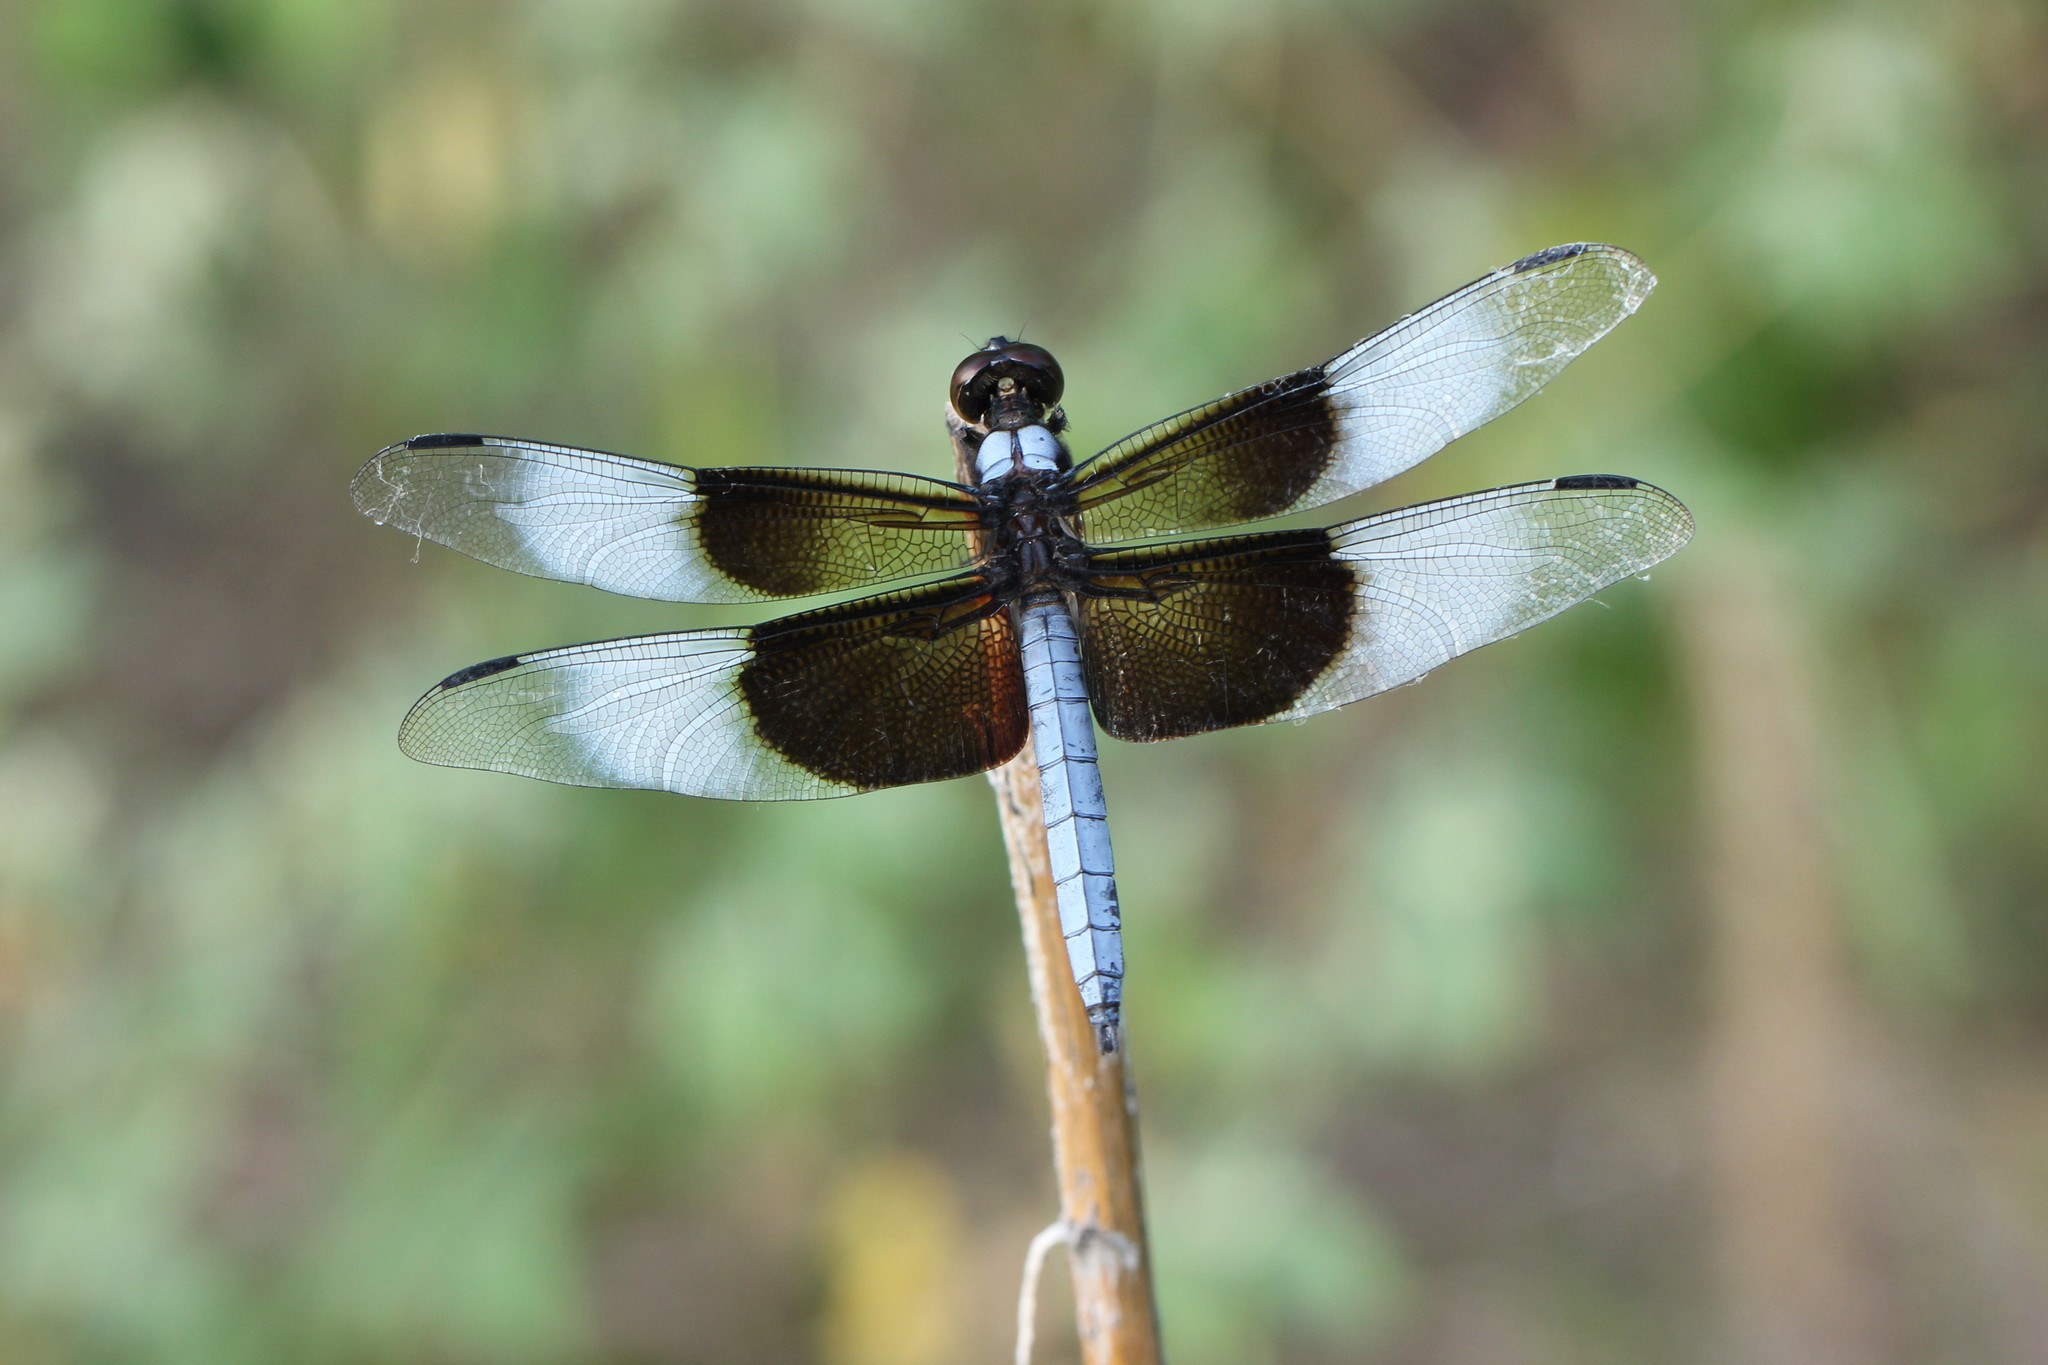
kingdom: Animalia
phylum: Arthropoda
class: Insecta
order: Odonata
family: Libellulidae
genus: Libellula
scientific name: Libellula luctuosa
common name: Widow skimmer
